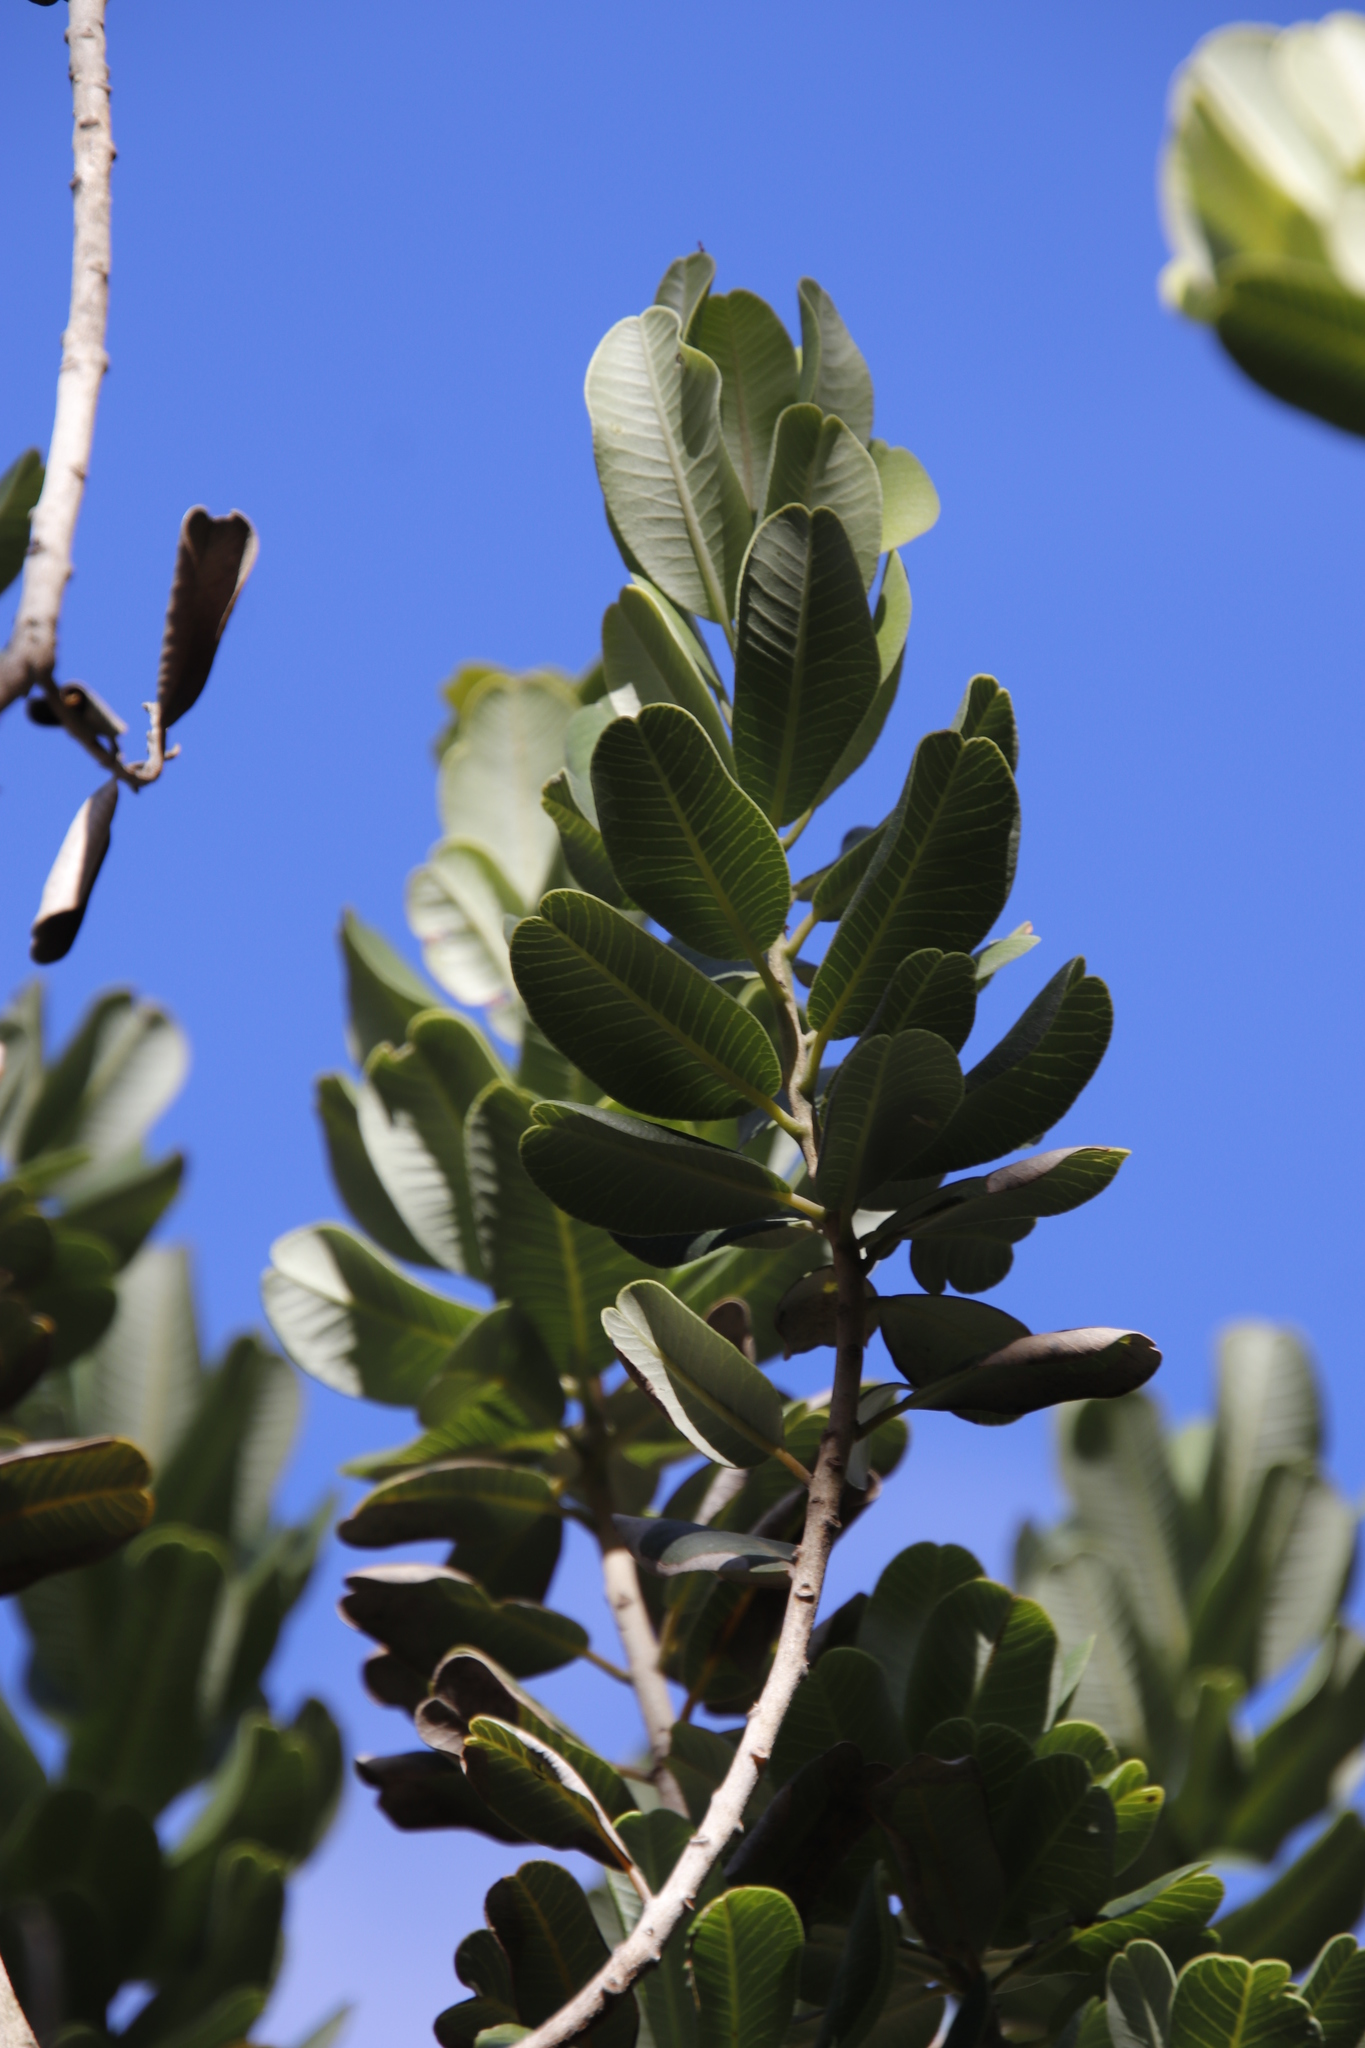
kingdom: Plantae
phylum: Tracheophyta
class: Magnoliopsida
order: Sapindales
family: Anacardiaceae
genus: Heeria
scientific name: Heeria argentea
